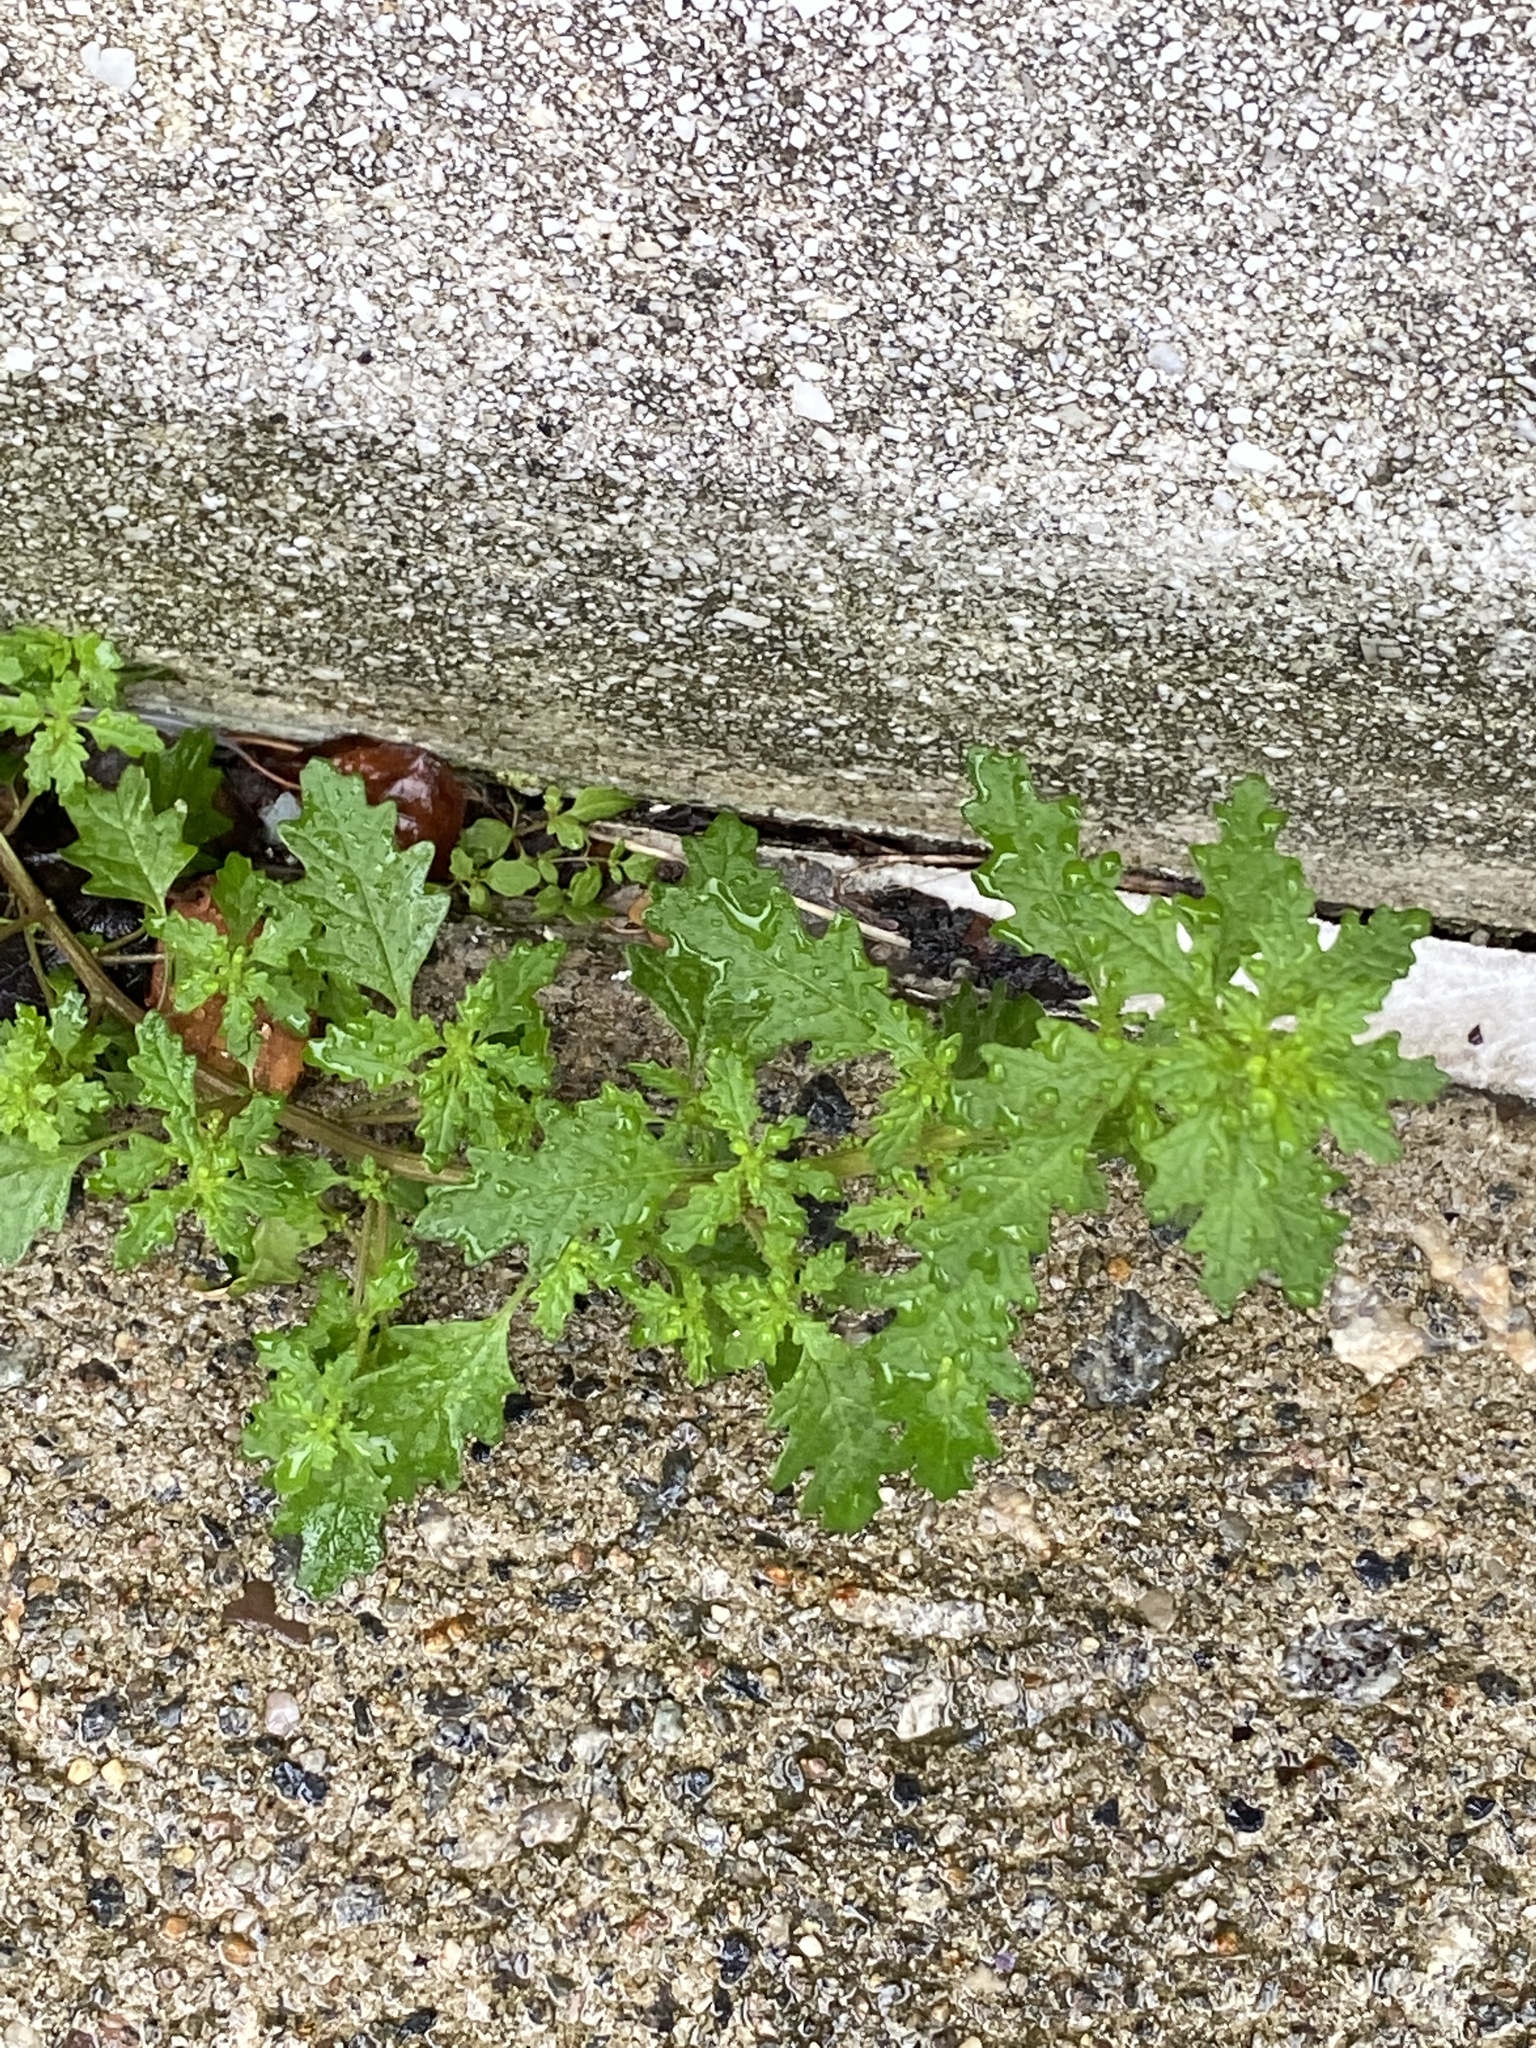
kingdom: Plantae
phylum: Tracheophyta
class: Magnoliopsida
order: Caryophyllales
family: Amaranthaceae
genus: Dysphania
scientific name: Dysphania pumilio
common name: Clammy goosefoot
